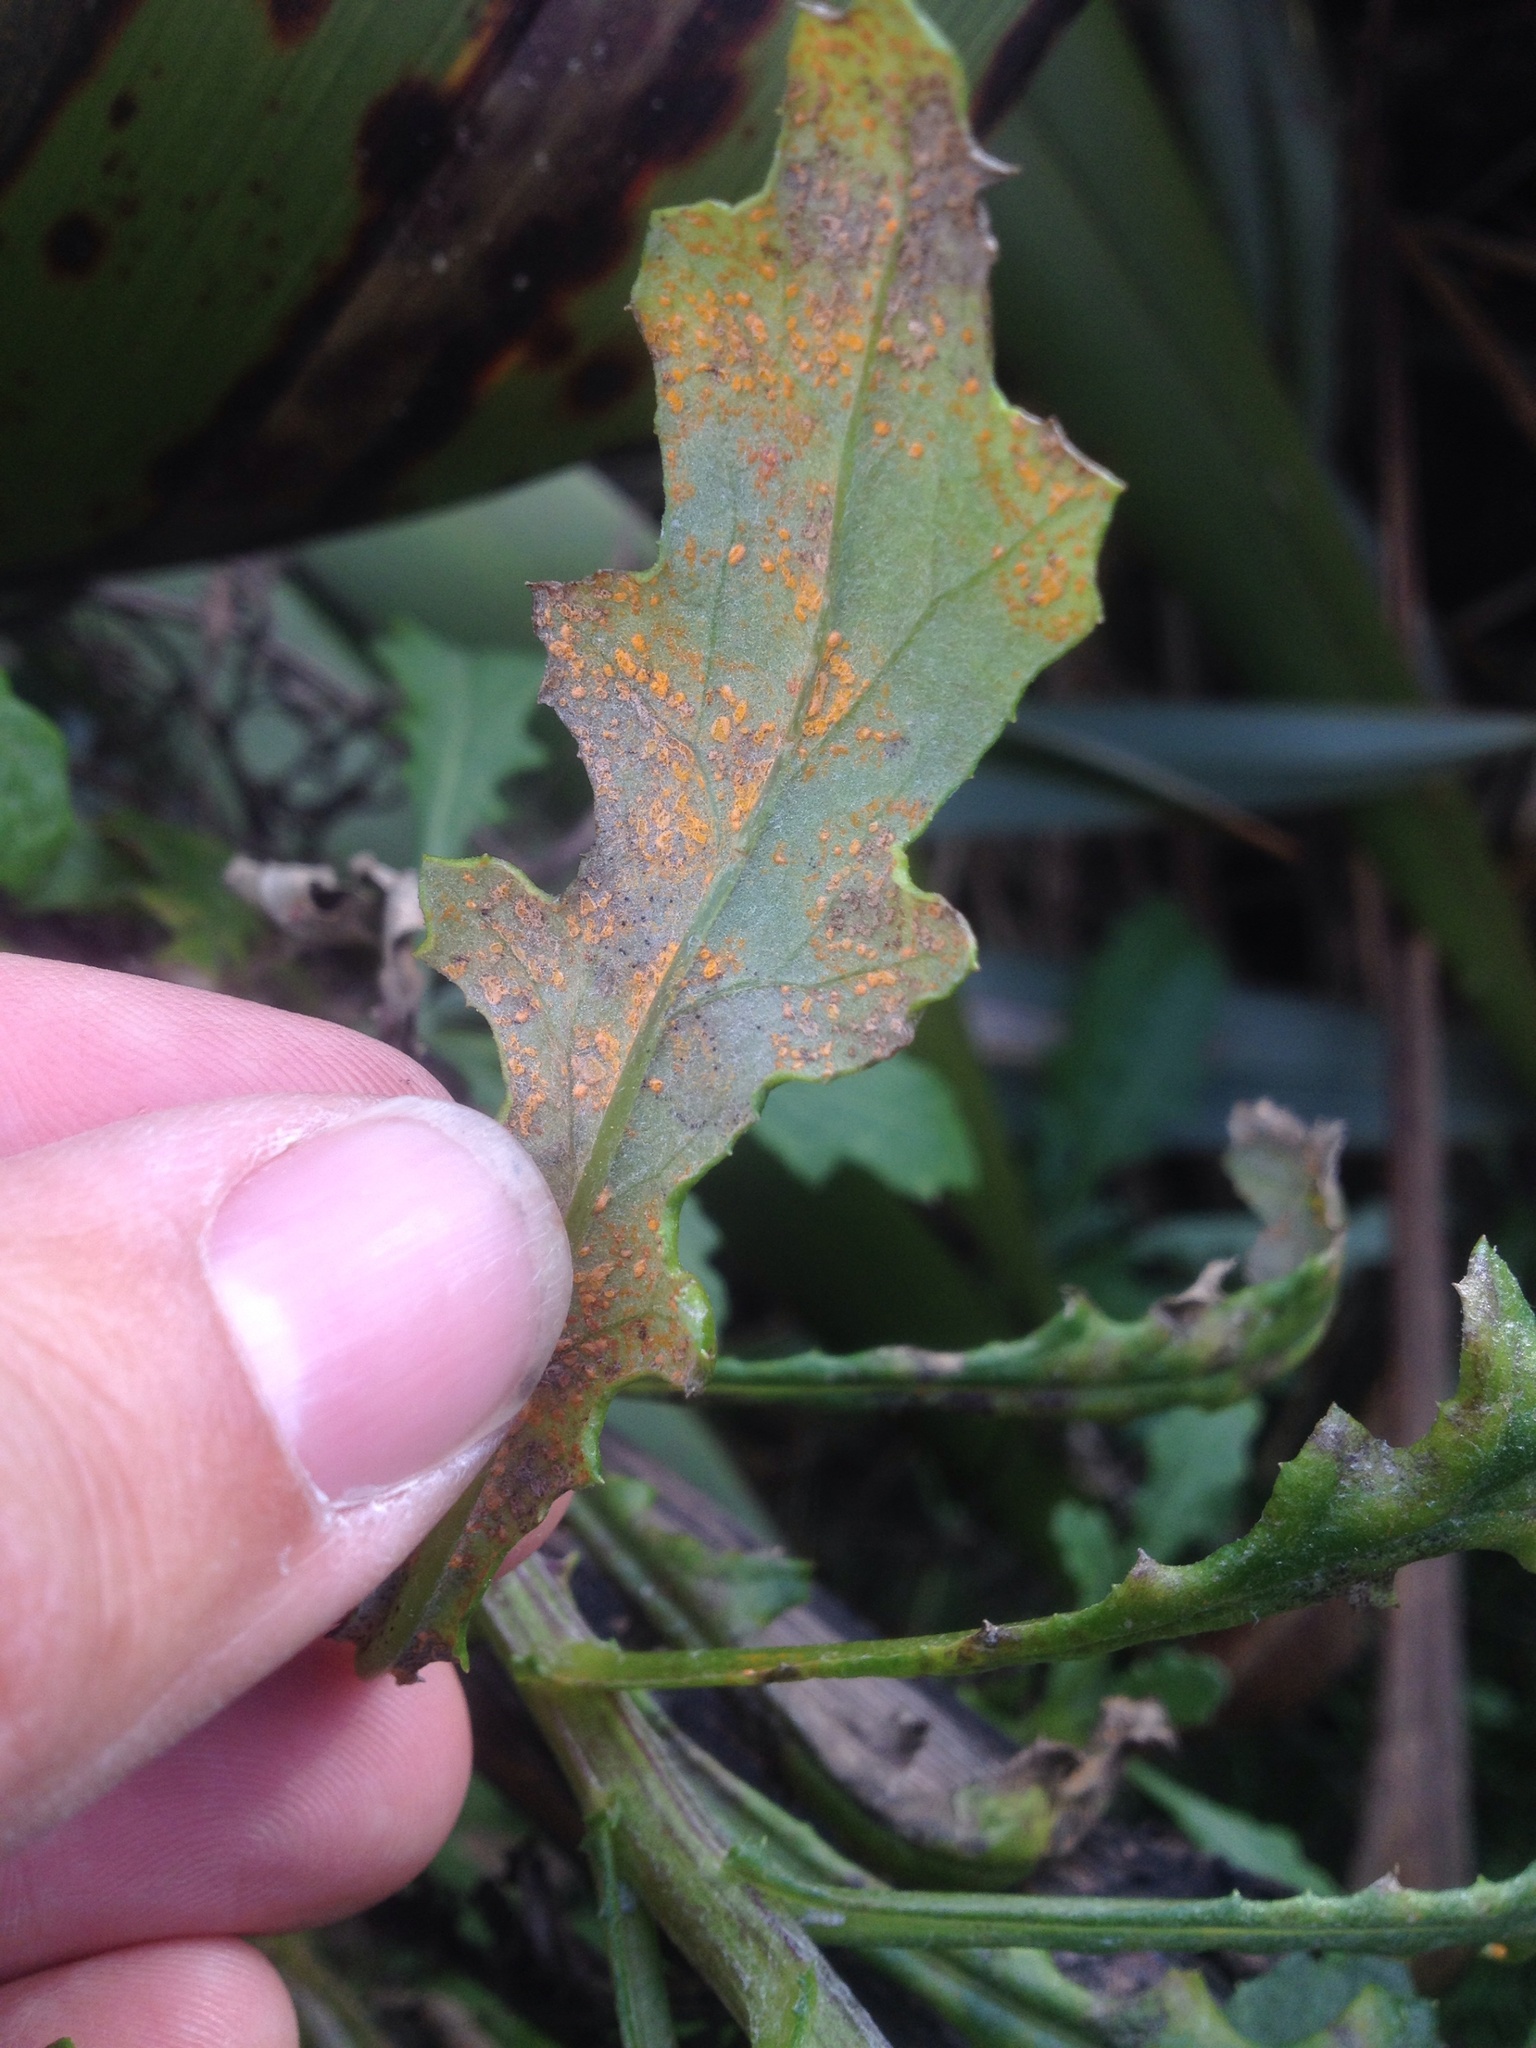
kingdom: Plantae
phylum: Tracheophyta
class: Magnoliopsida
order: Asterales
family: Asteraceae
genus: Senecio
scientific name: Senecio glomeratus
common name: Cutleaf burnweed
